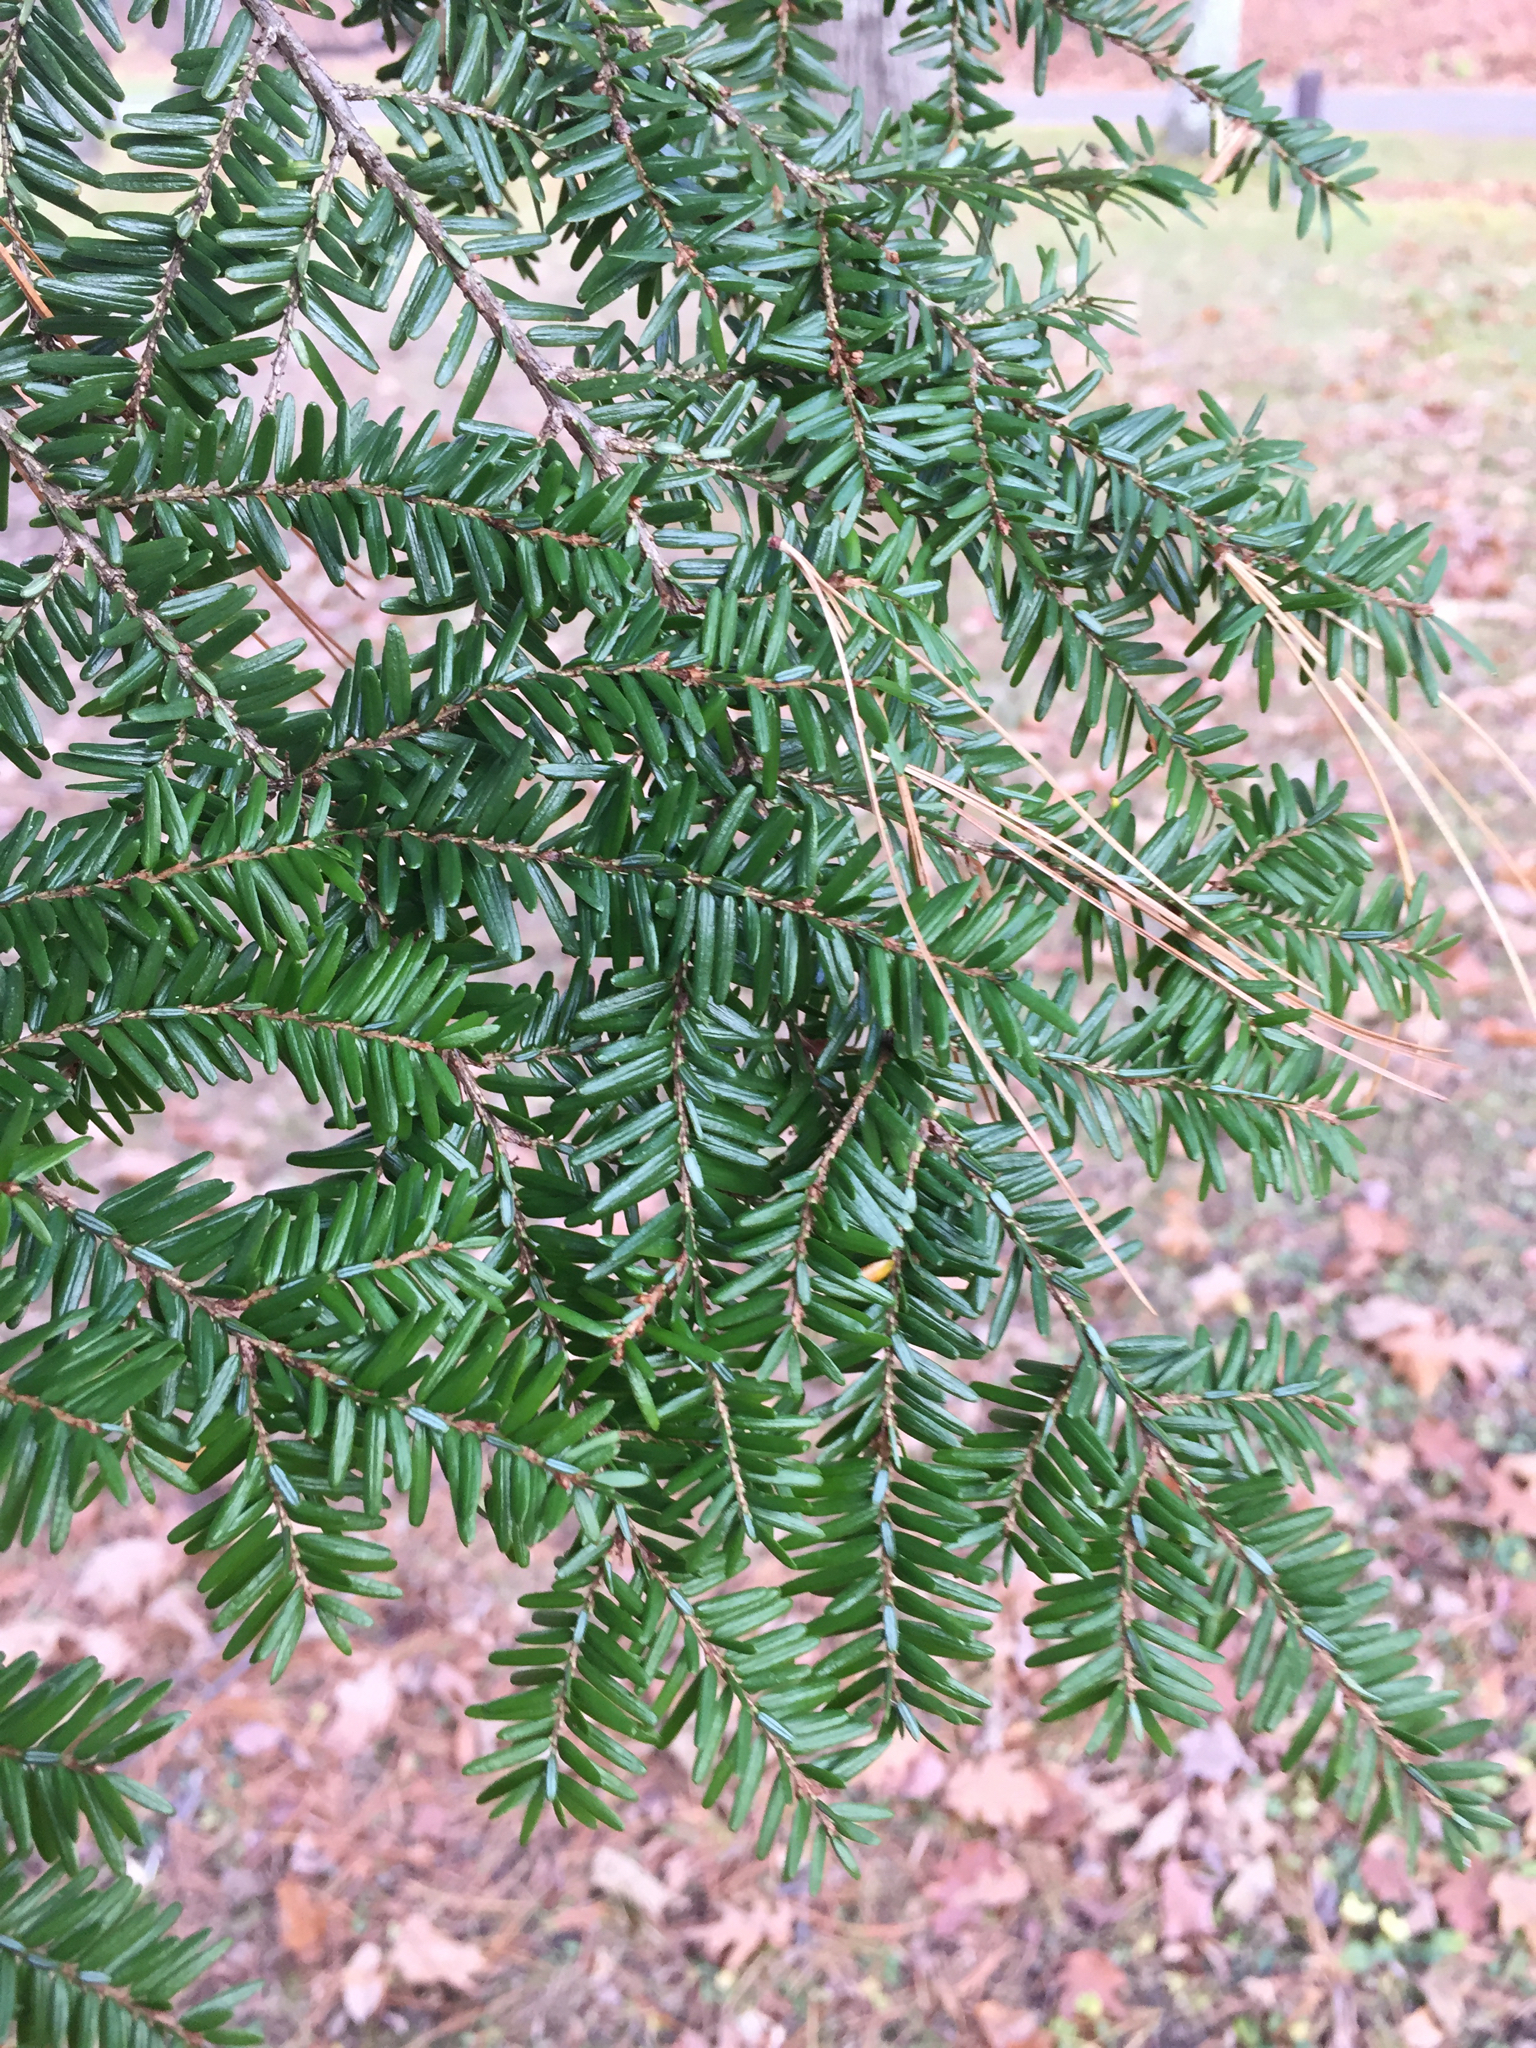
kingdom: Plantae
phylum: Tracheophyta
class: Pinopsida
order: Pinales
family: Pinaceae
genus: Tsuga
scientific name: Tsuga canadensis
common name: Eastern hemlock
